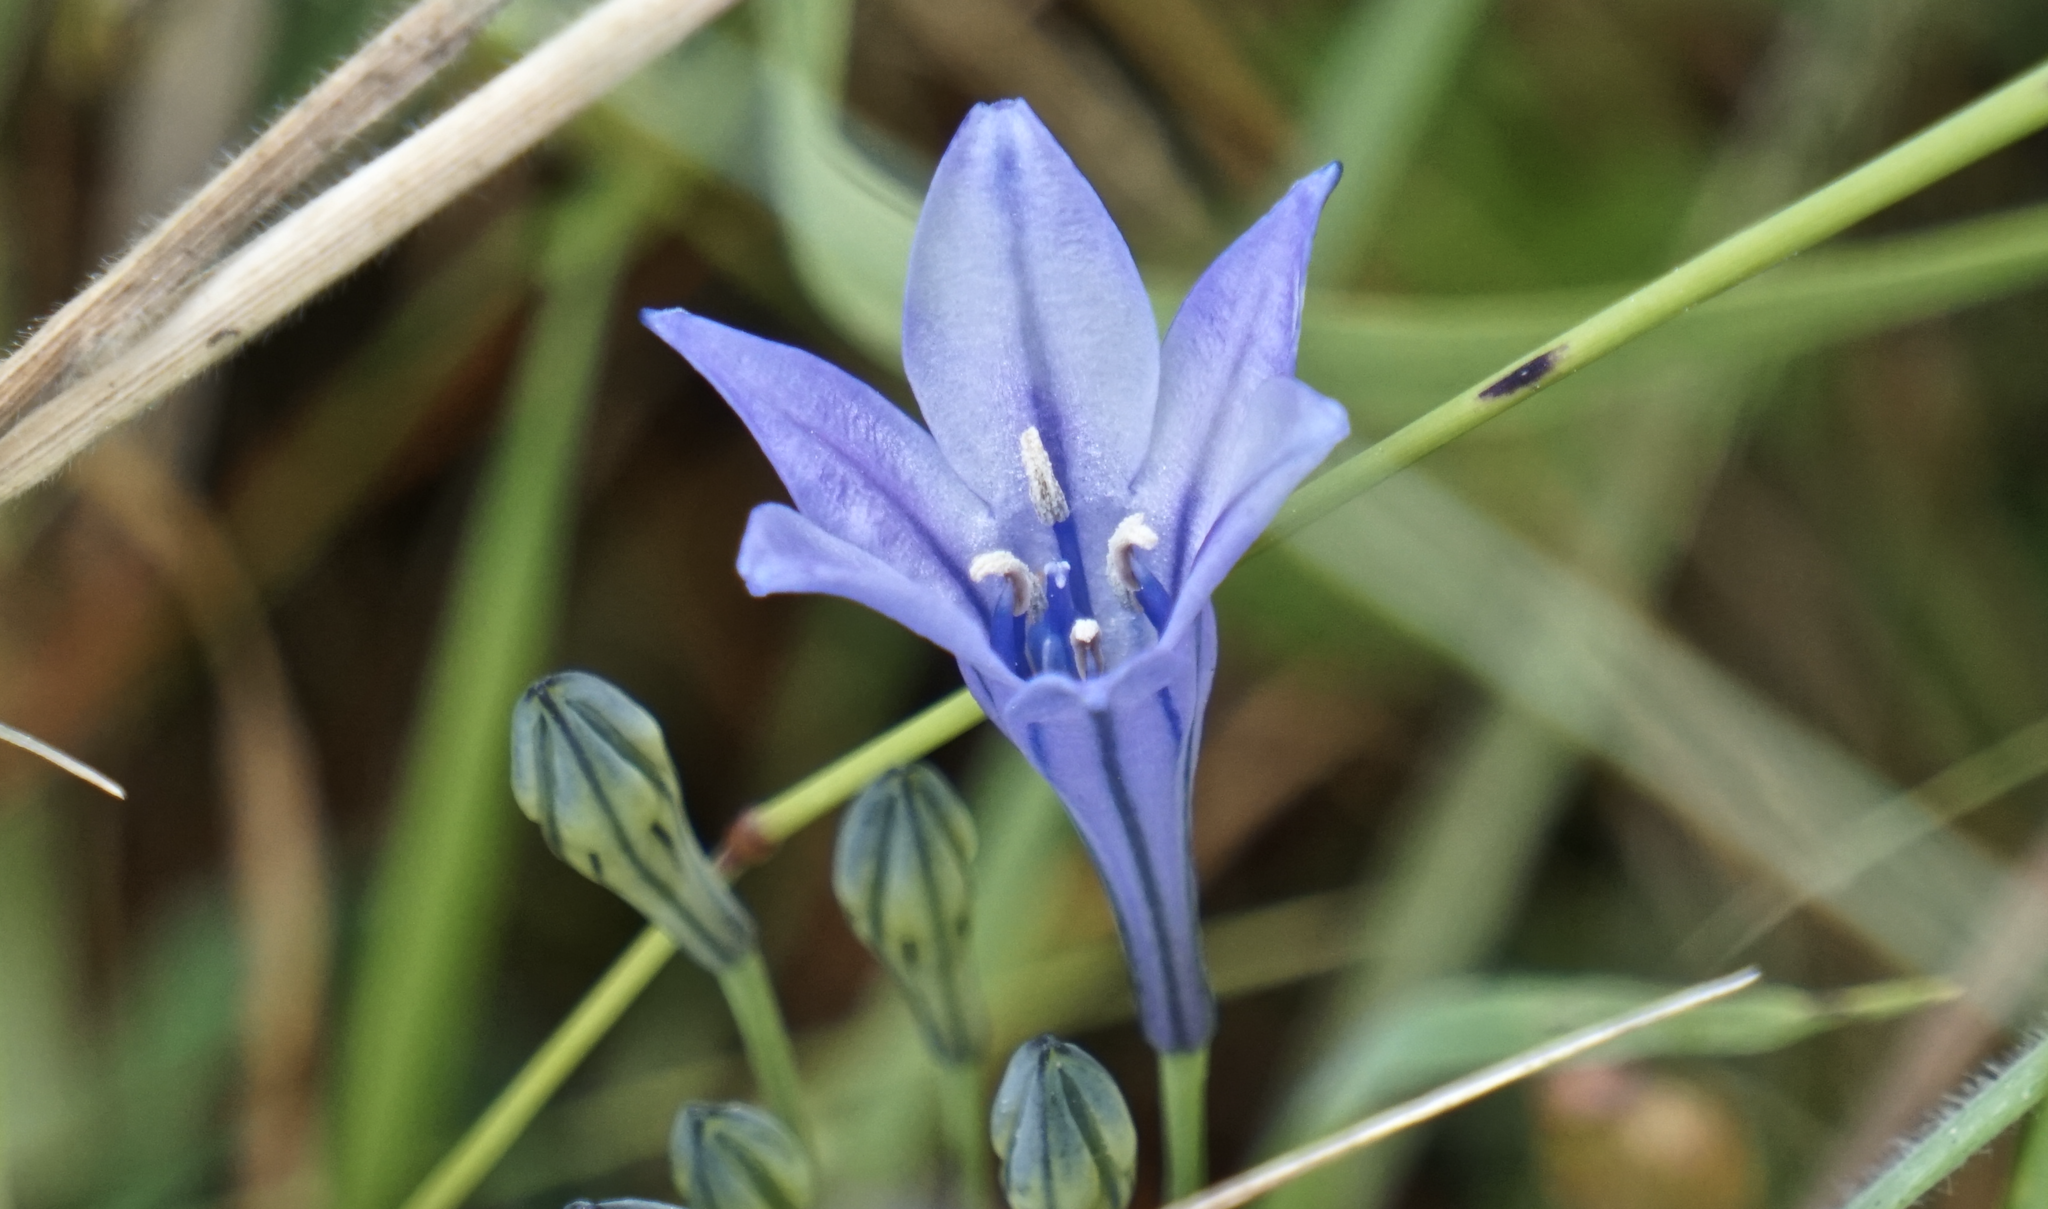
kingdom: Plantae
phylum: Tracheophyta
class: Liliopsida
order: Asparagales
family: Asparagaceae
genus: Triteleia
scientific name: Triteleia laxa
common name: Triplet-lily
